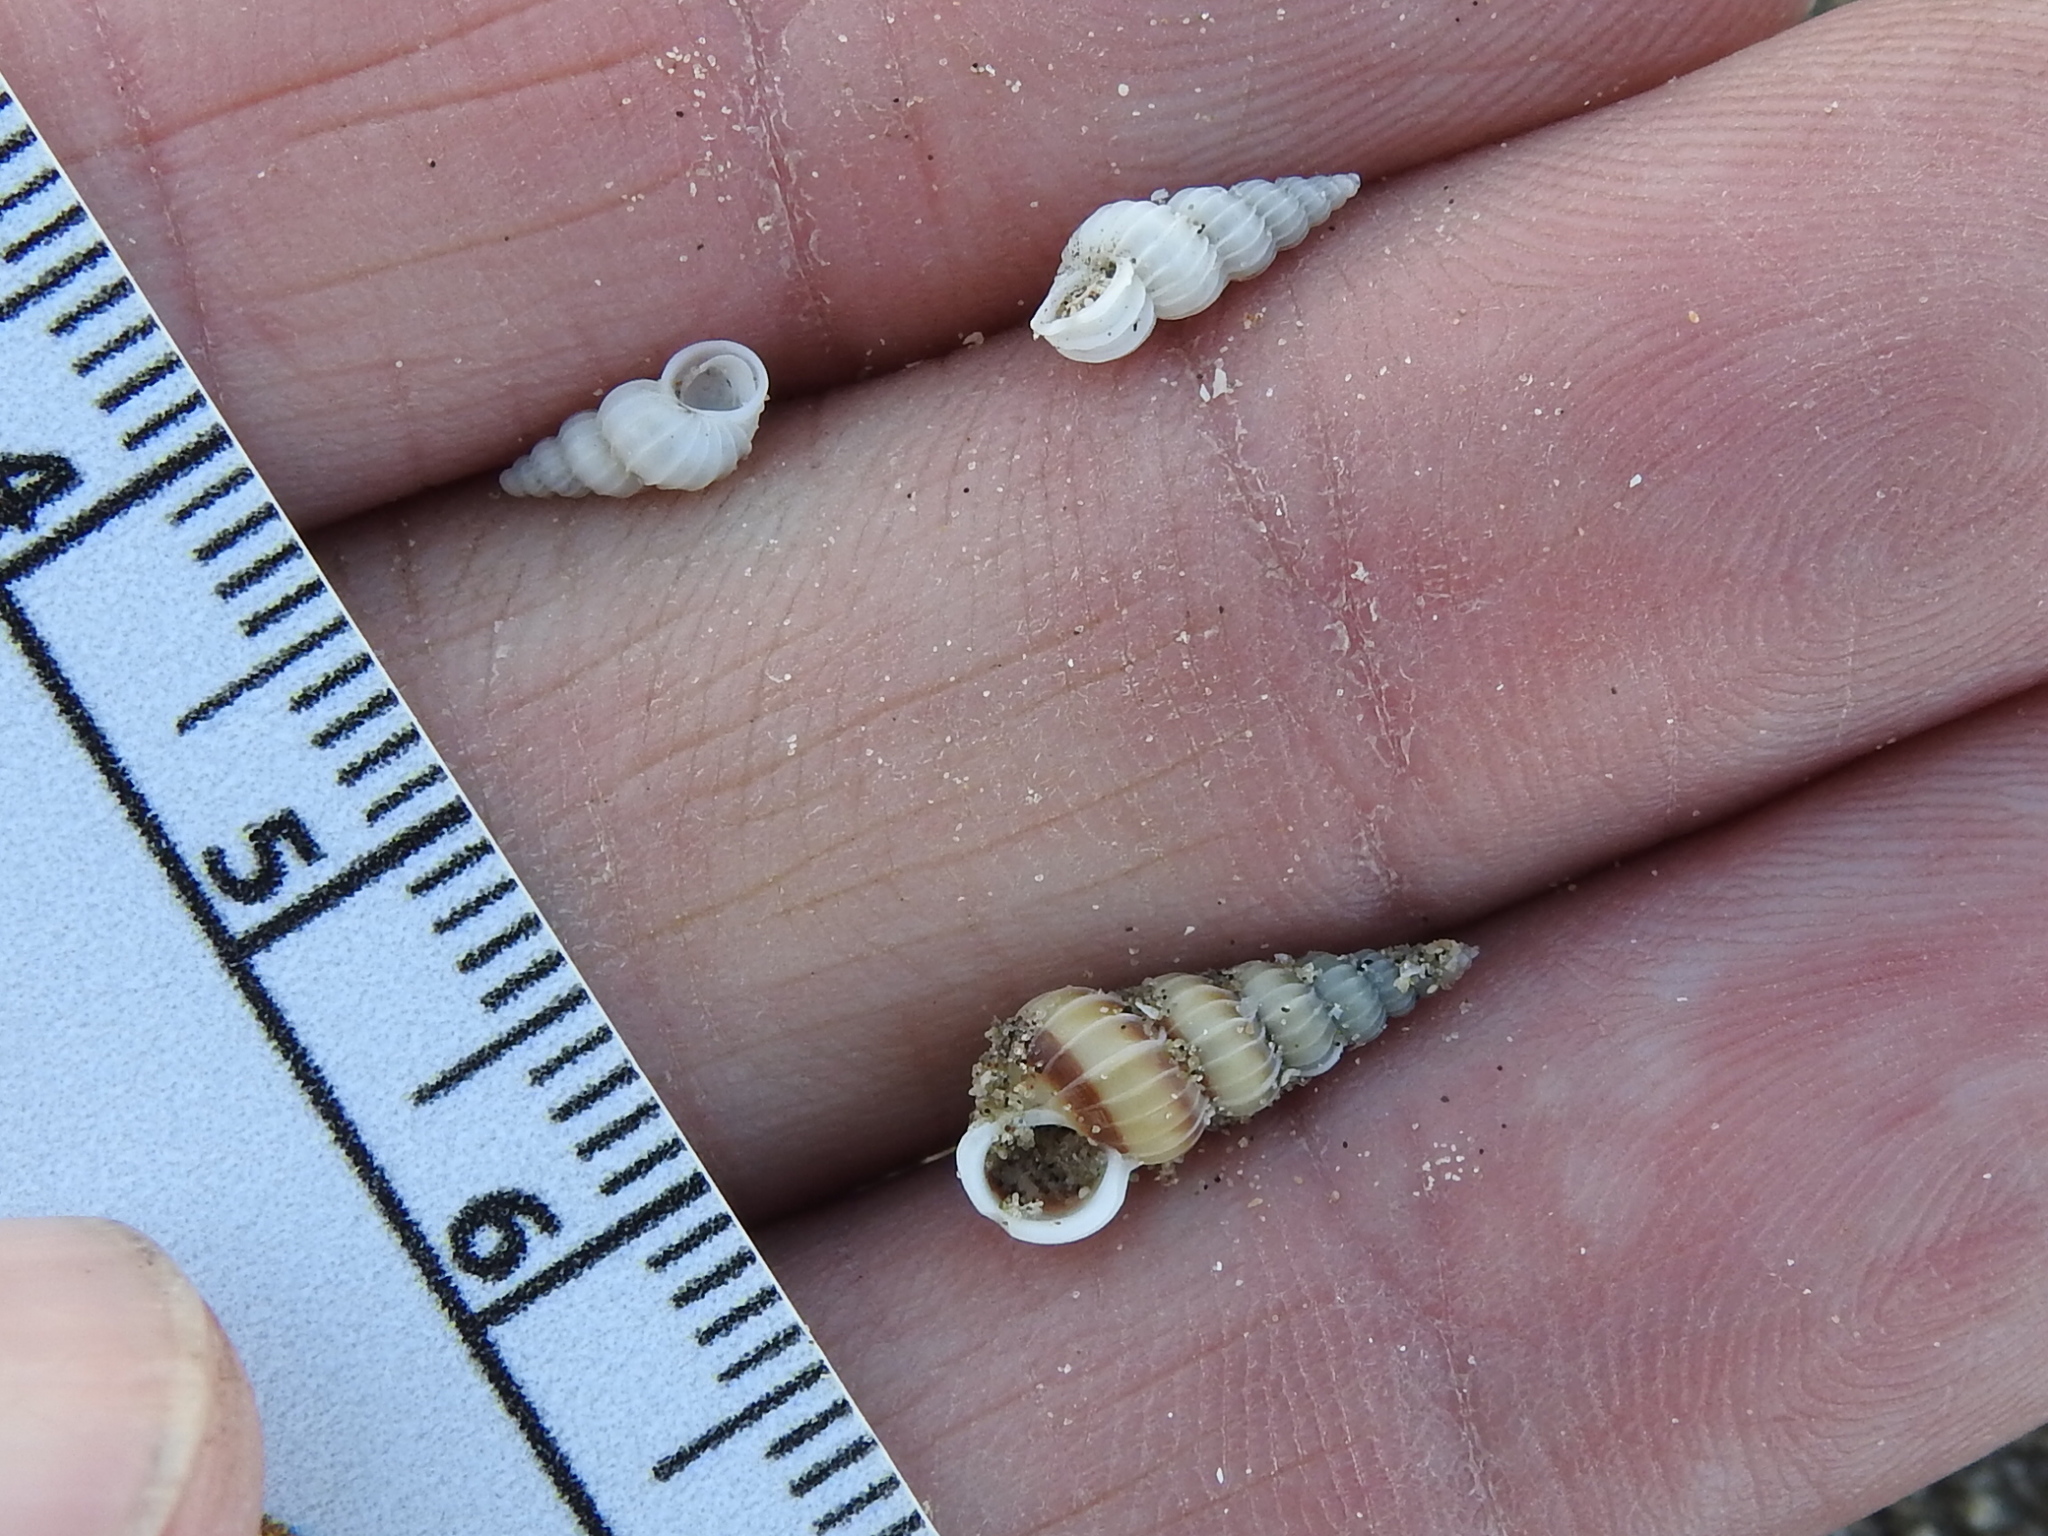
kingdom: Animalia
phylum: Mollusca
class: Gastropoda
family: Epitoniidae
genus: Epitonium
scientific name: Epitonium
